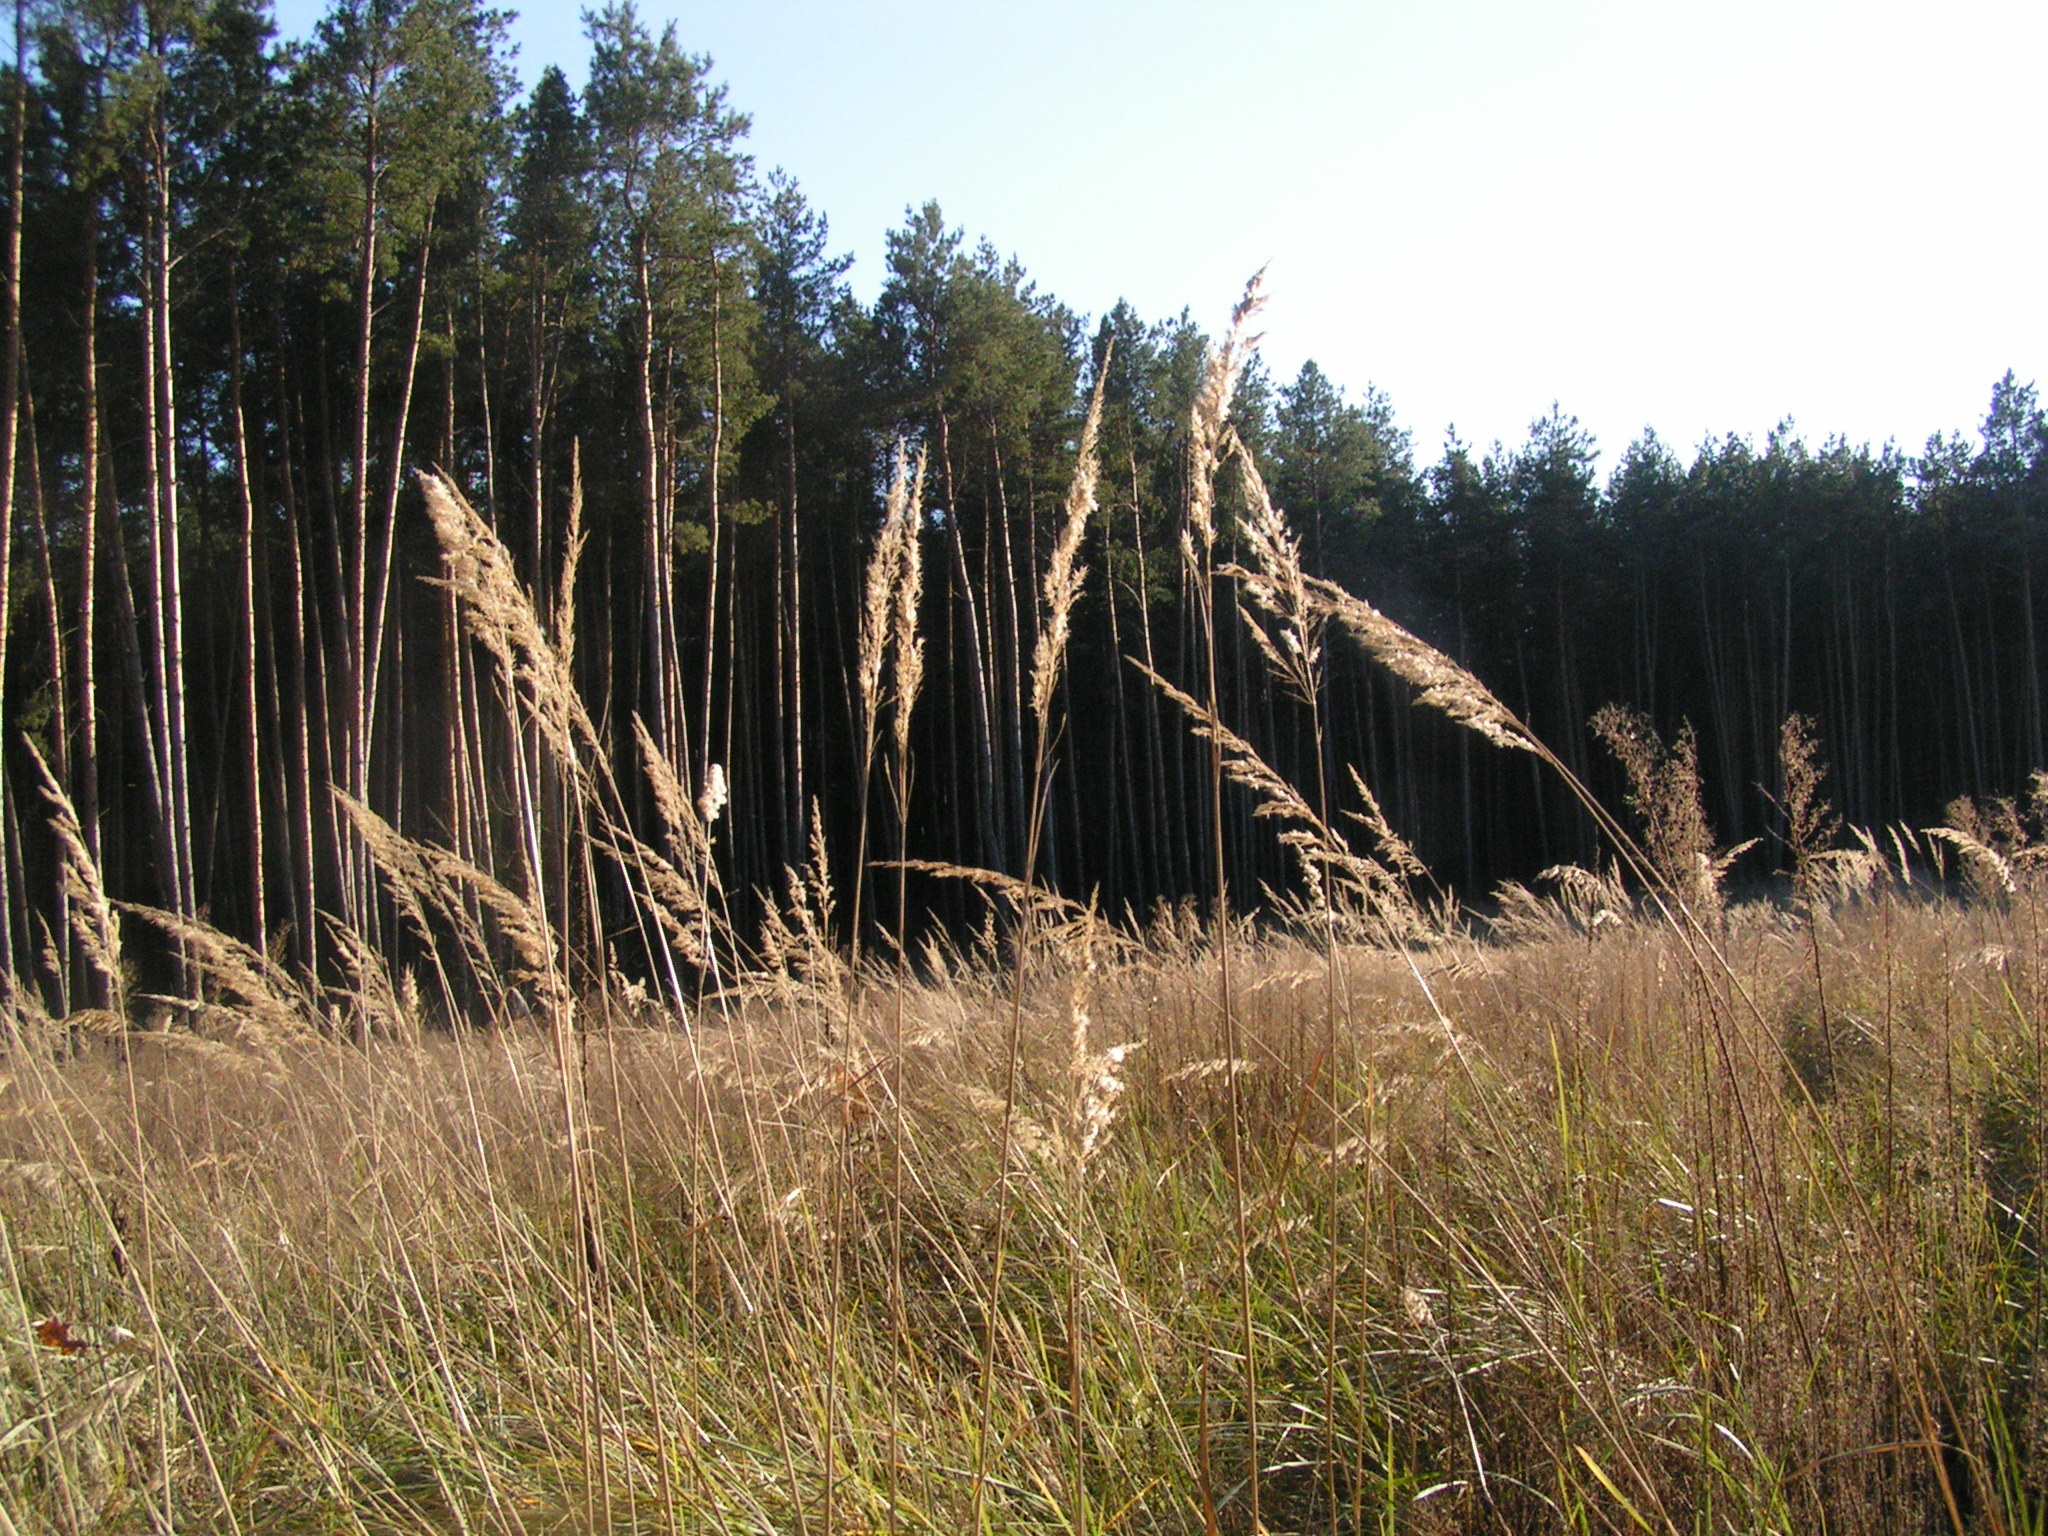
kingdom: Plantae
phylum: Tracheophyta
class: Liliopsida
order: Poales
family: Poaceae
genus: Calamagrostis
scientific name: Calamagrostis epigejos
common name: Wood small-reed
